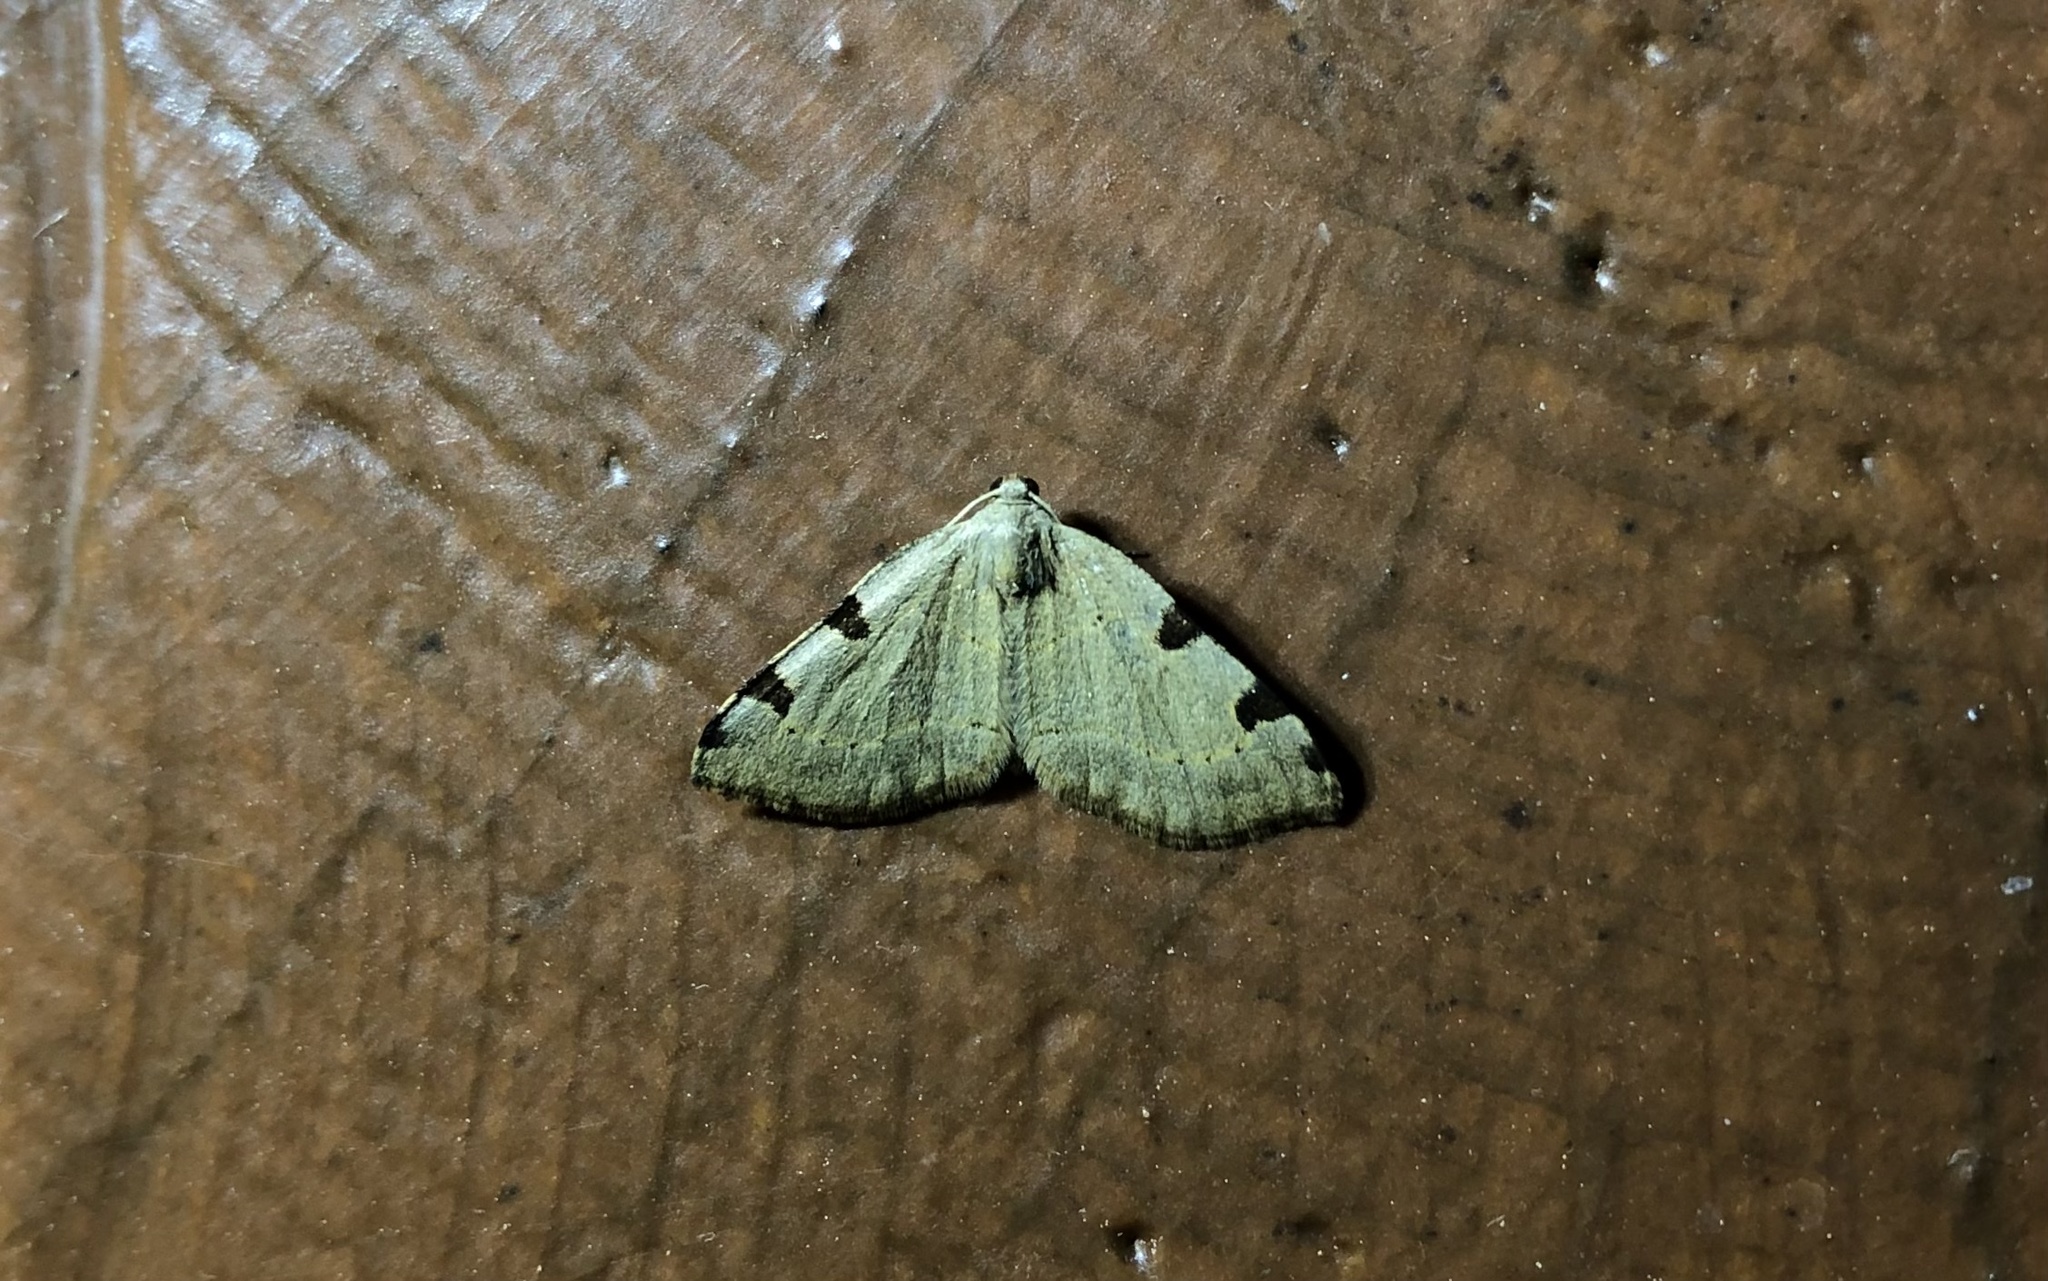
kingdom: Animalia
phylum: Arthropoda
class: Insecta
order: Lepidoptera
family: Geometridae
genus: Heterophleps
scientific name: Heterophleps triguttaria
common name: Three-spotted fillip
